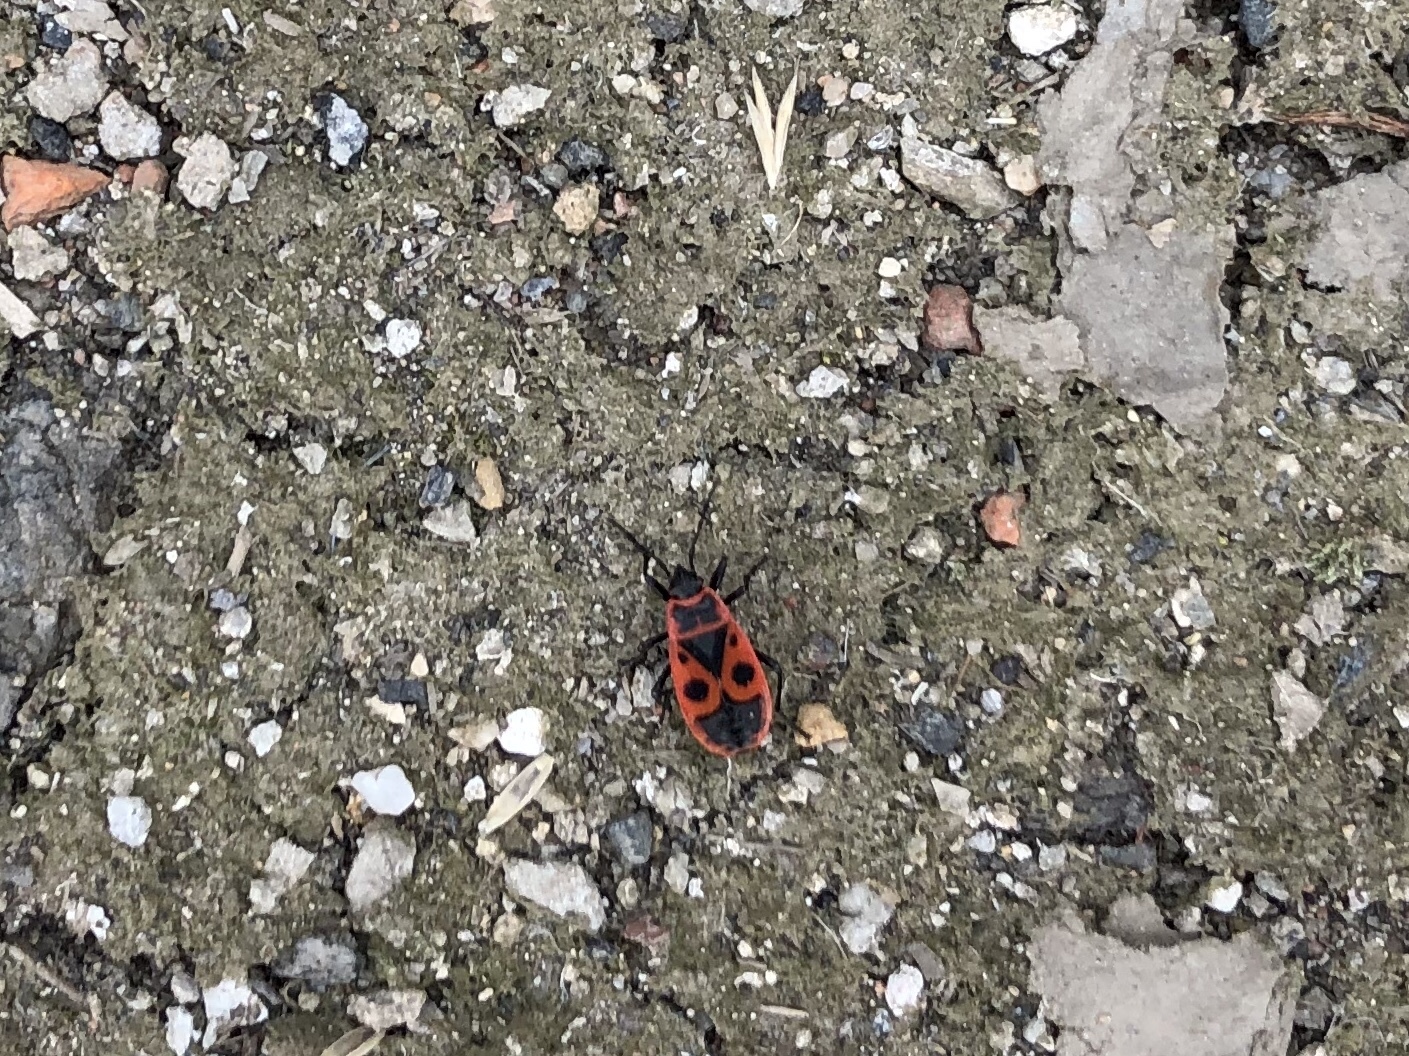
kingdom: Animalia
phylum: Arthropoda
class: Insecta
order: Hemiptera
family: Pyrrhocoridae
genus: Pyrrhocoris
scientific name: Pyrrhocoris apterus
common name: Firebug
